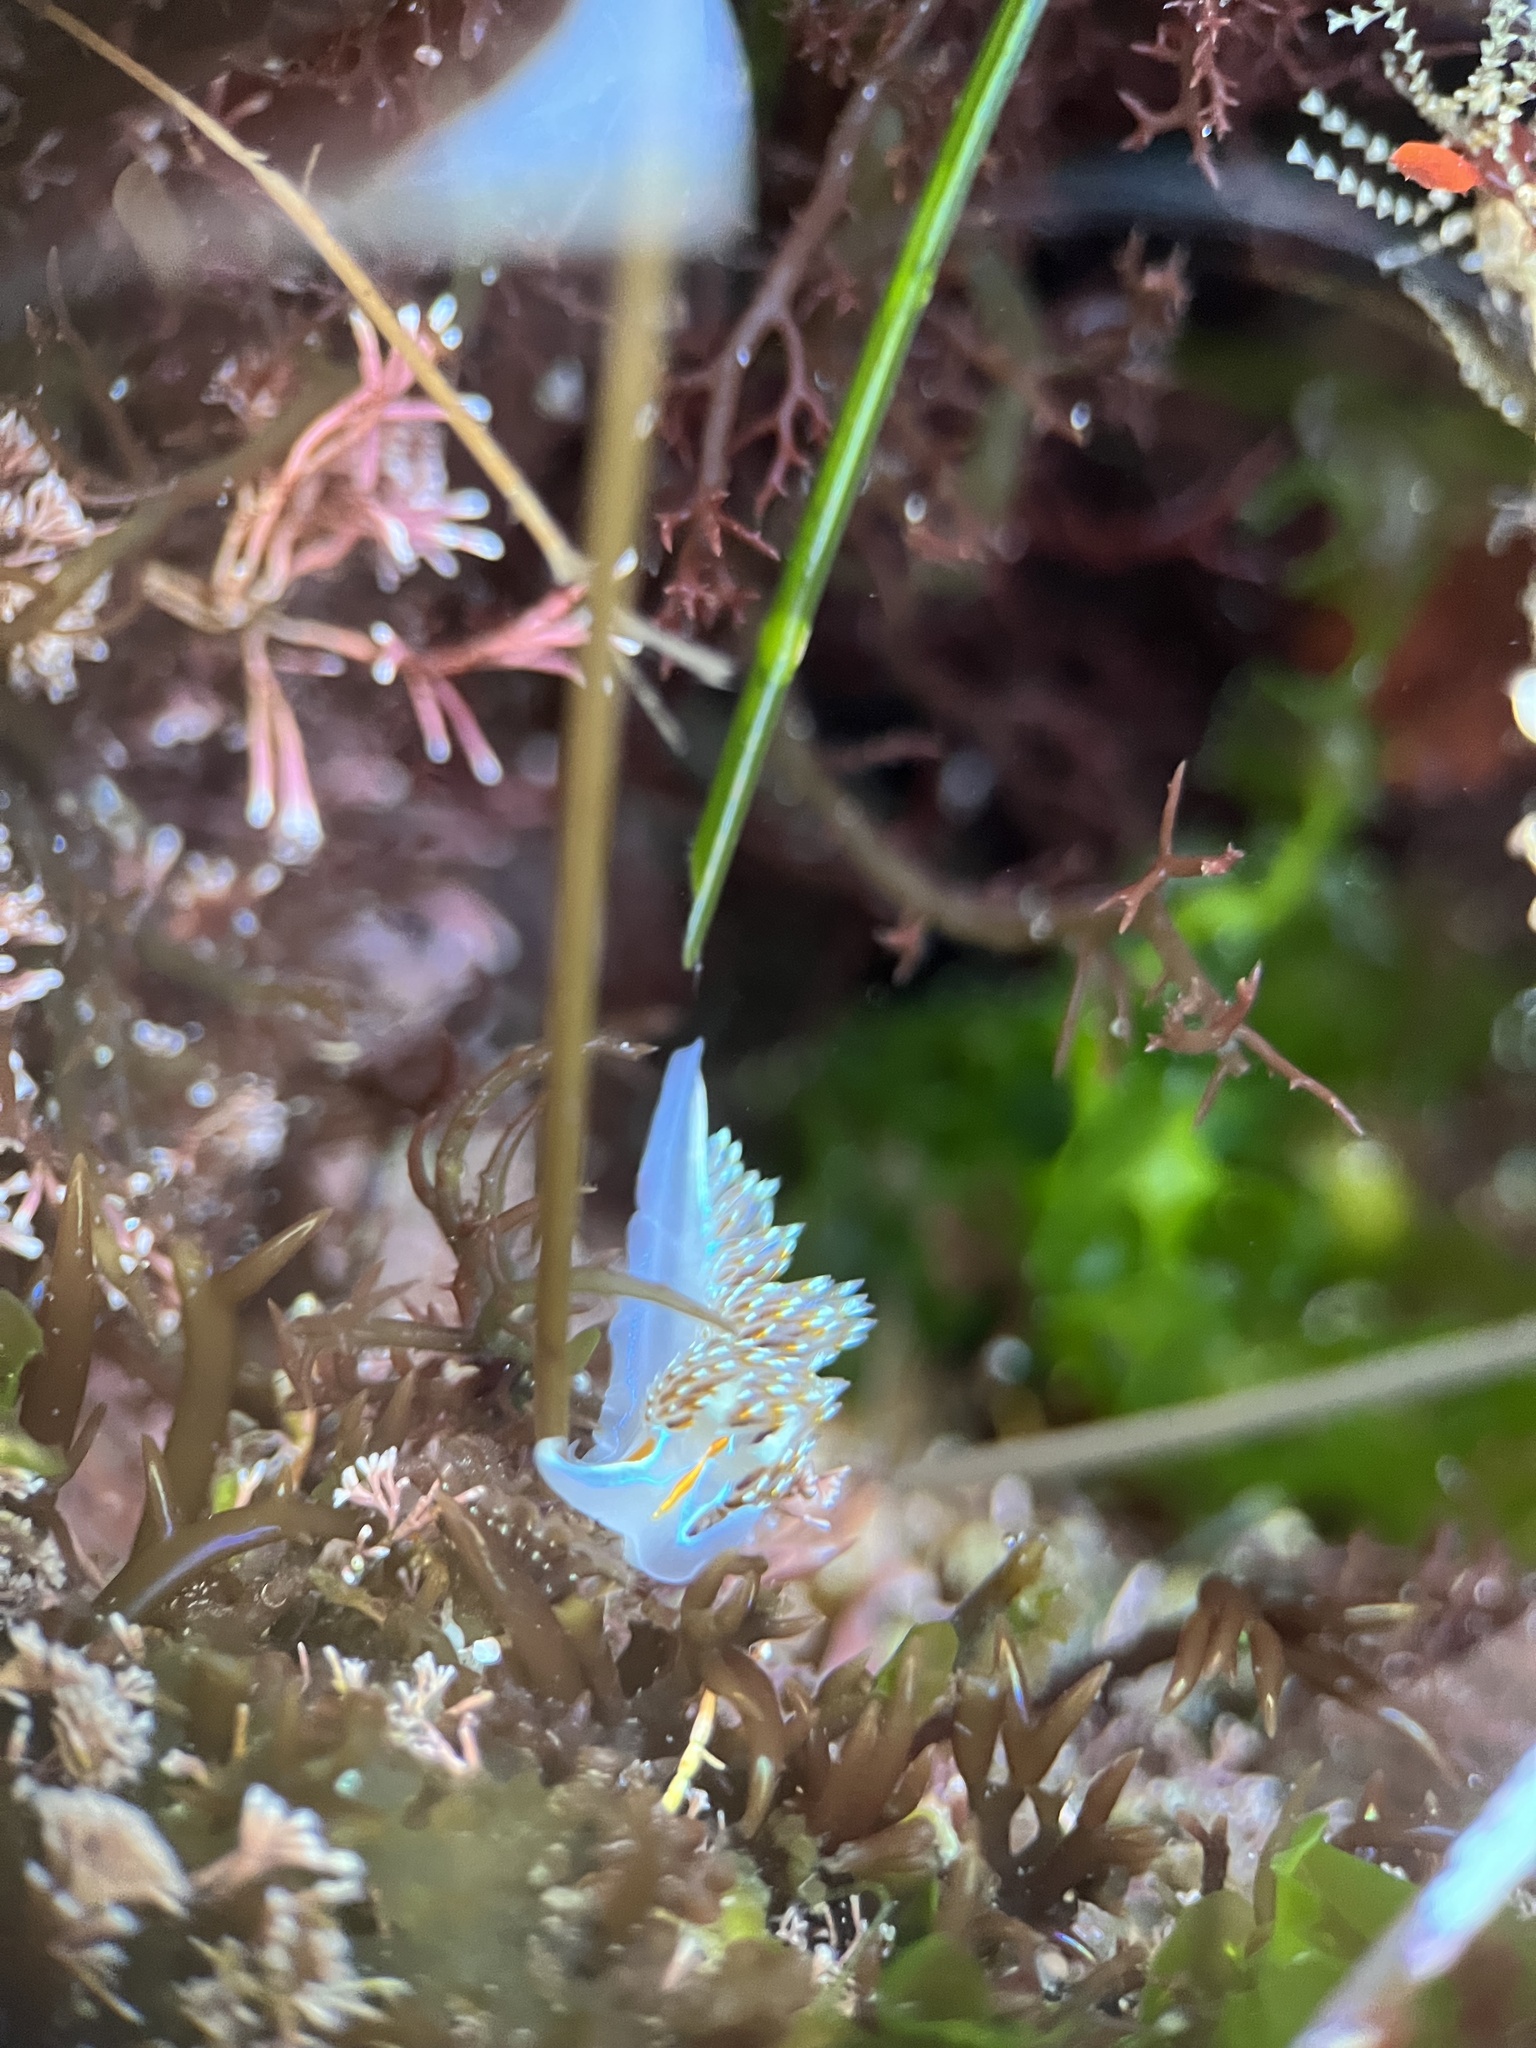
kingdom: Animalia
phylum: Mollusca
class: Gastropoda
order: Nudibranchia
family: Myrrhinidae
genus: Hermissenda
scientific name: Hermissenda opalescens
